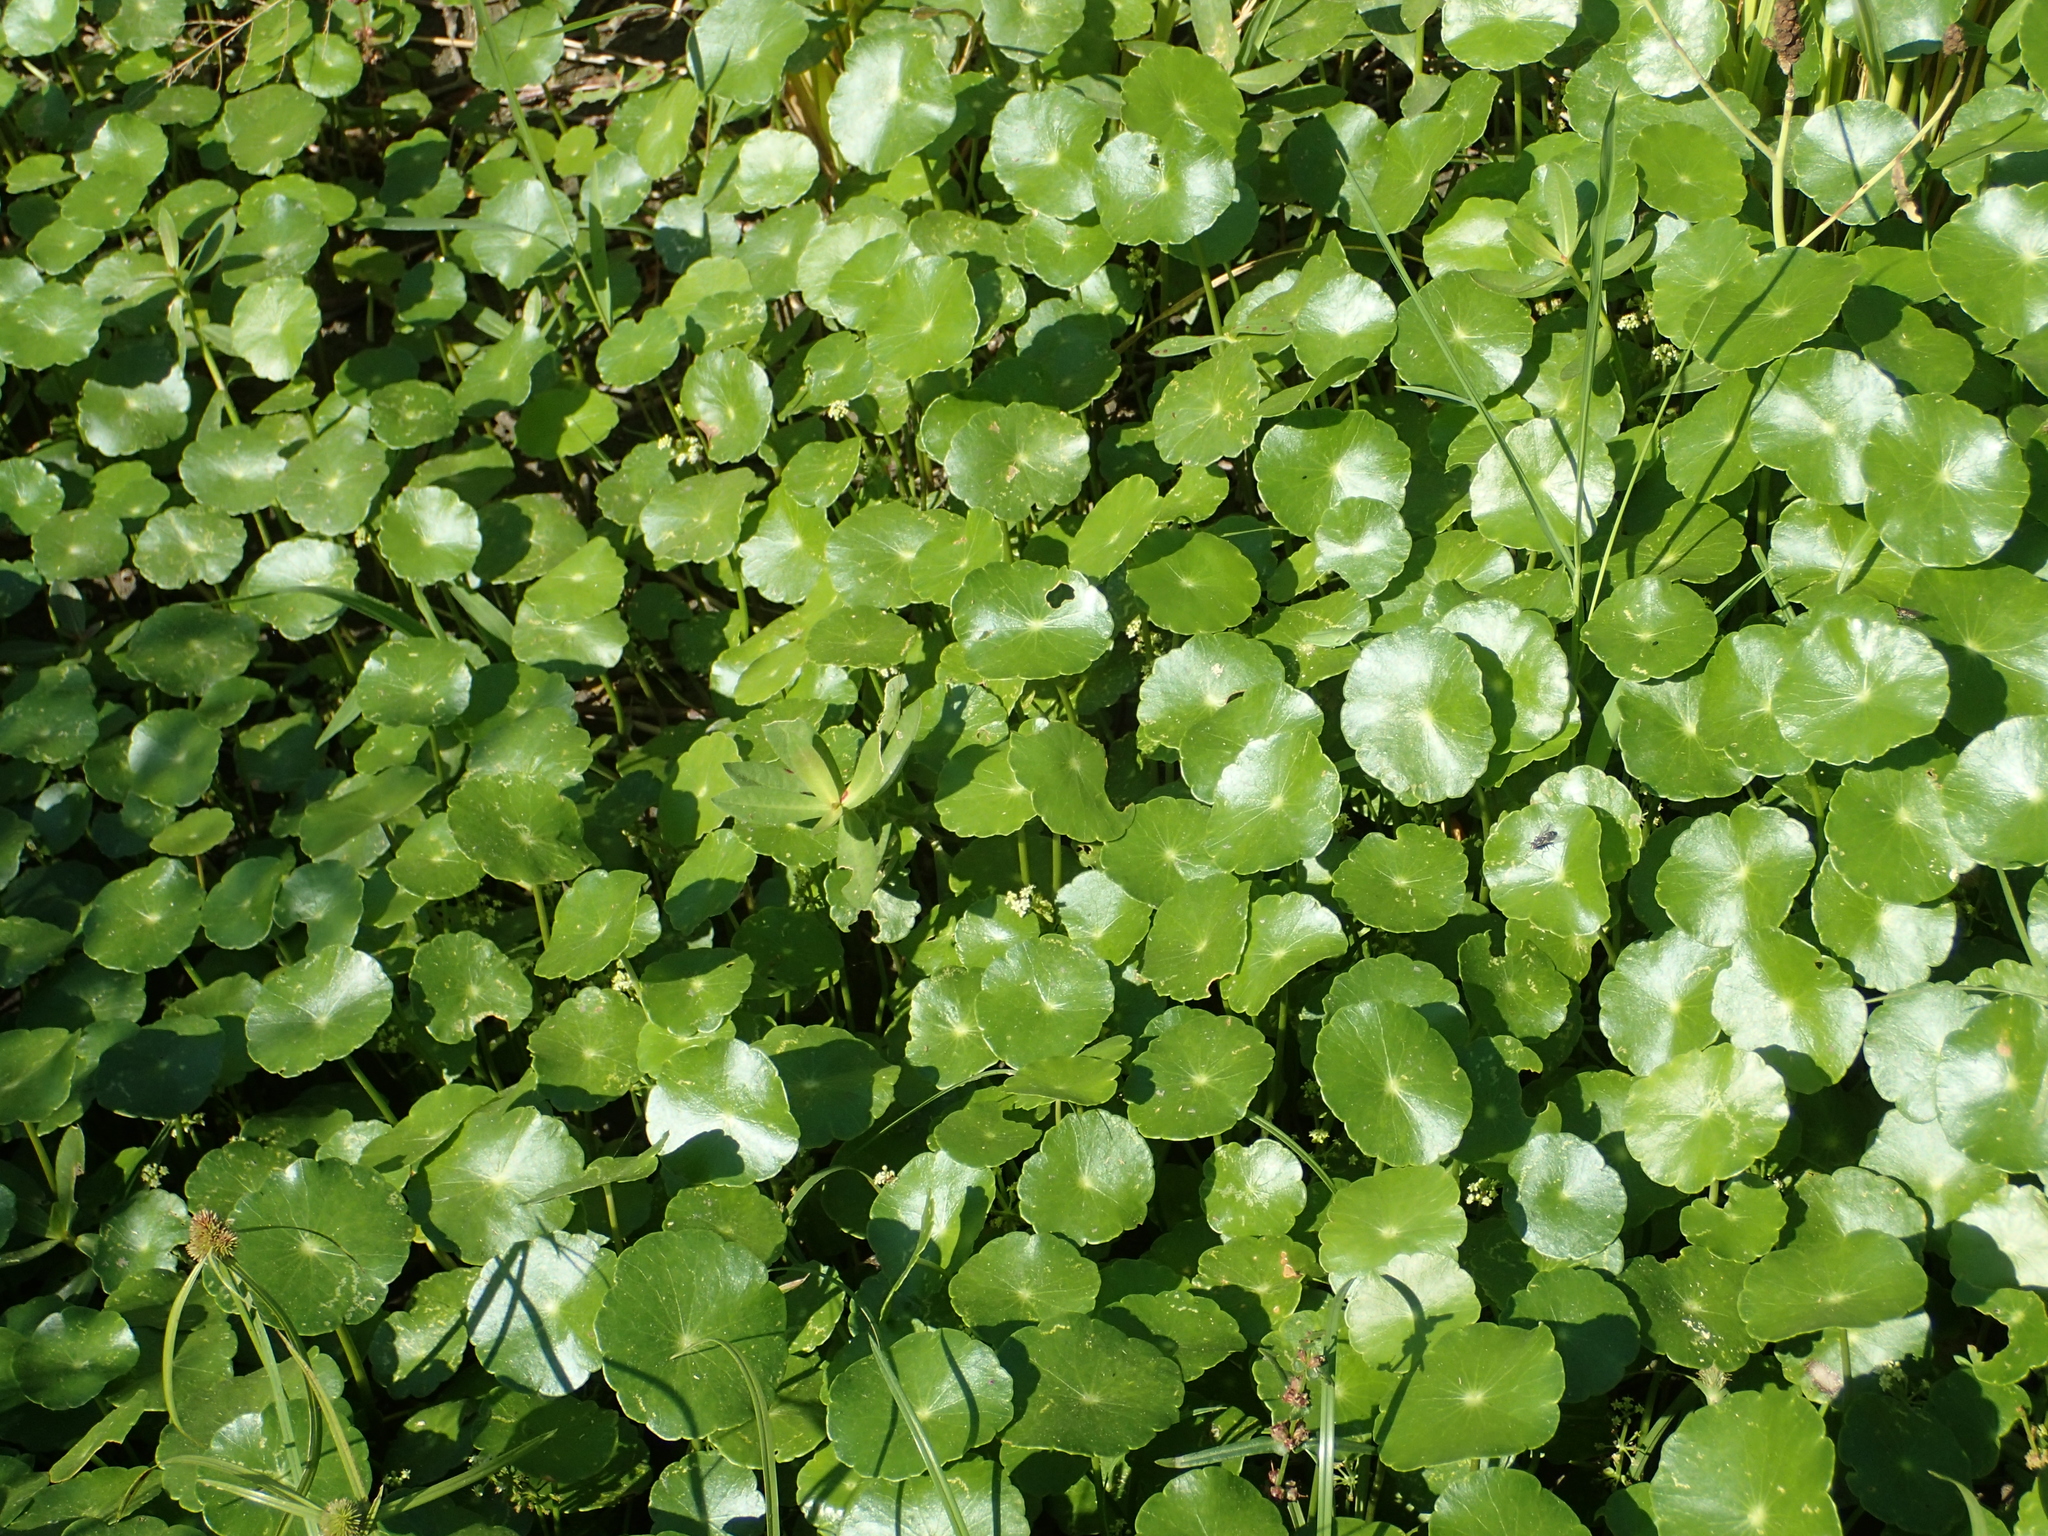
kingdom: Plantae
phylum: Tracheophyta
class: Magnoliopsida
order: Apiales
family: Araliaceae
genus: Hydrocotyle
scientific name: Hydrocotyle verticillata
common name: Whorled marshpennywort
